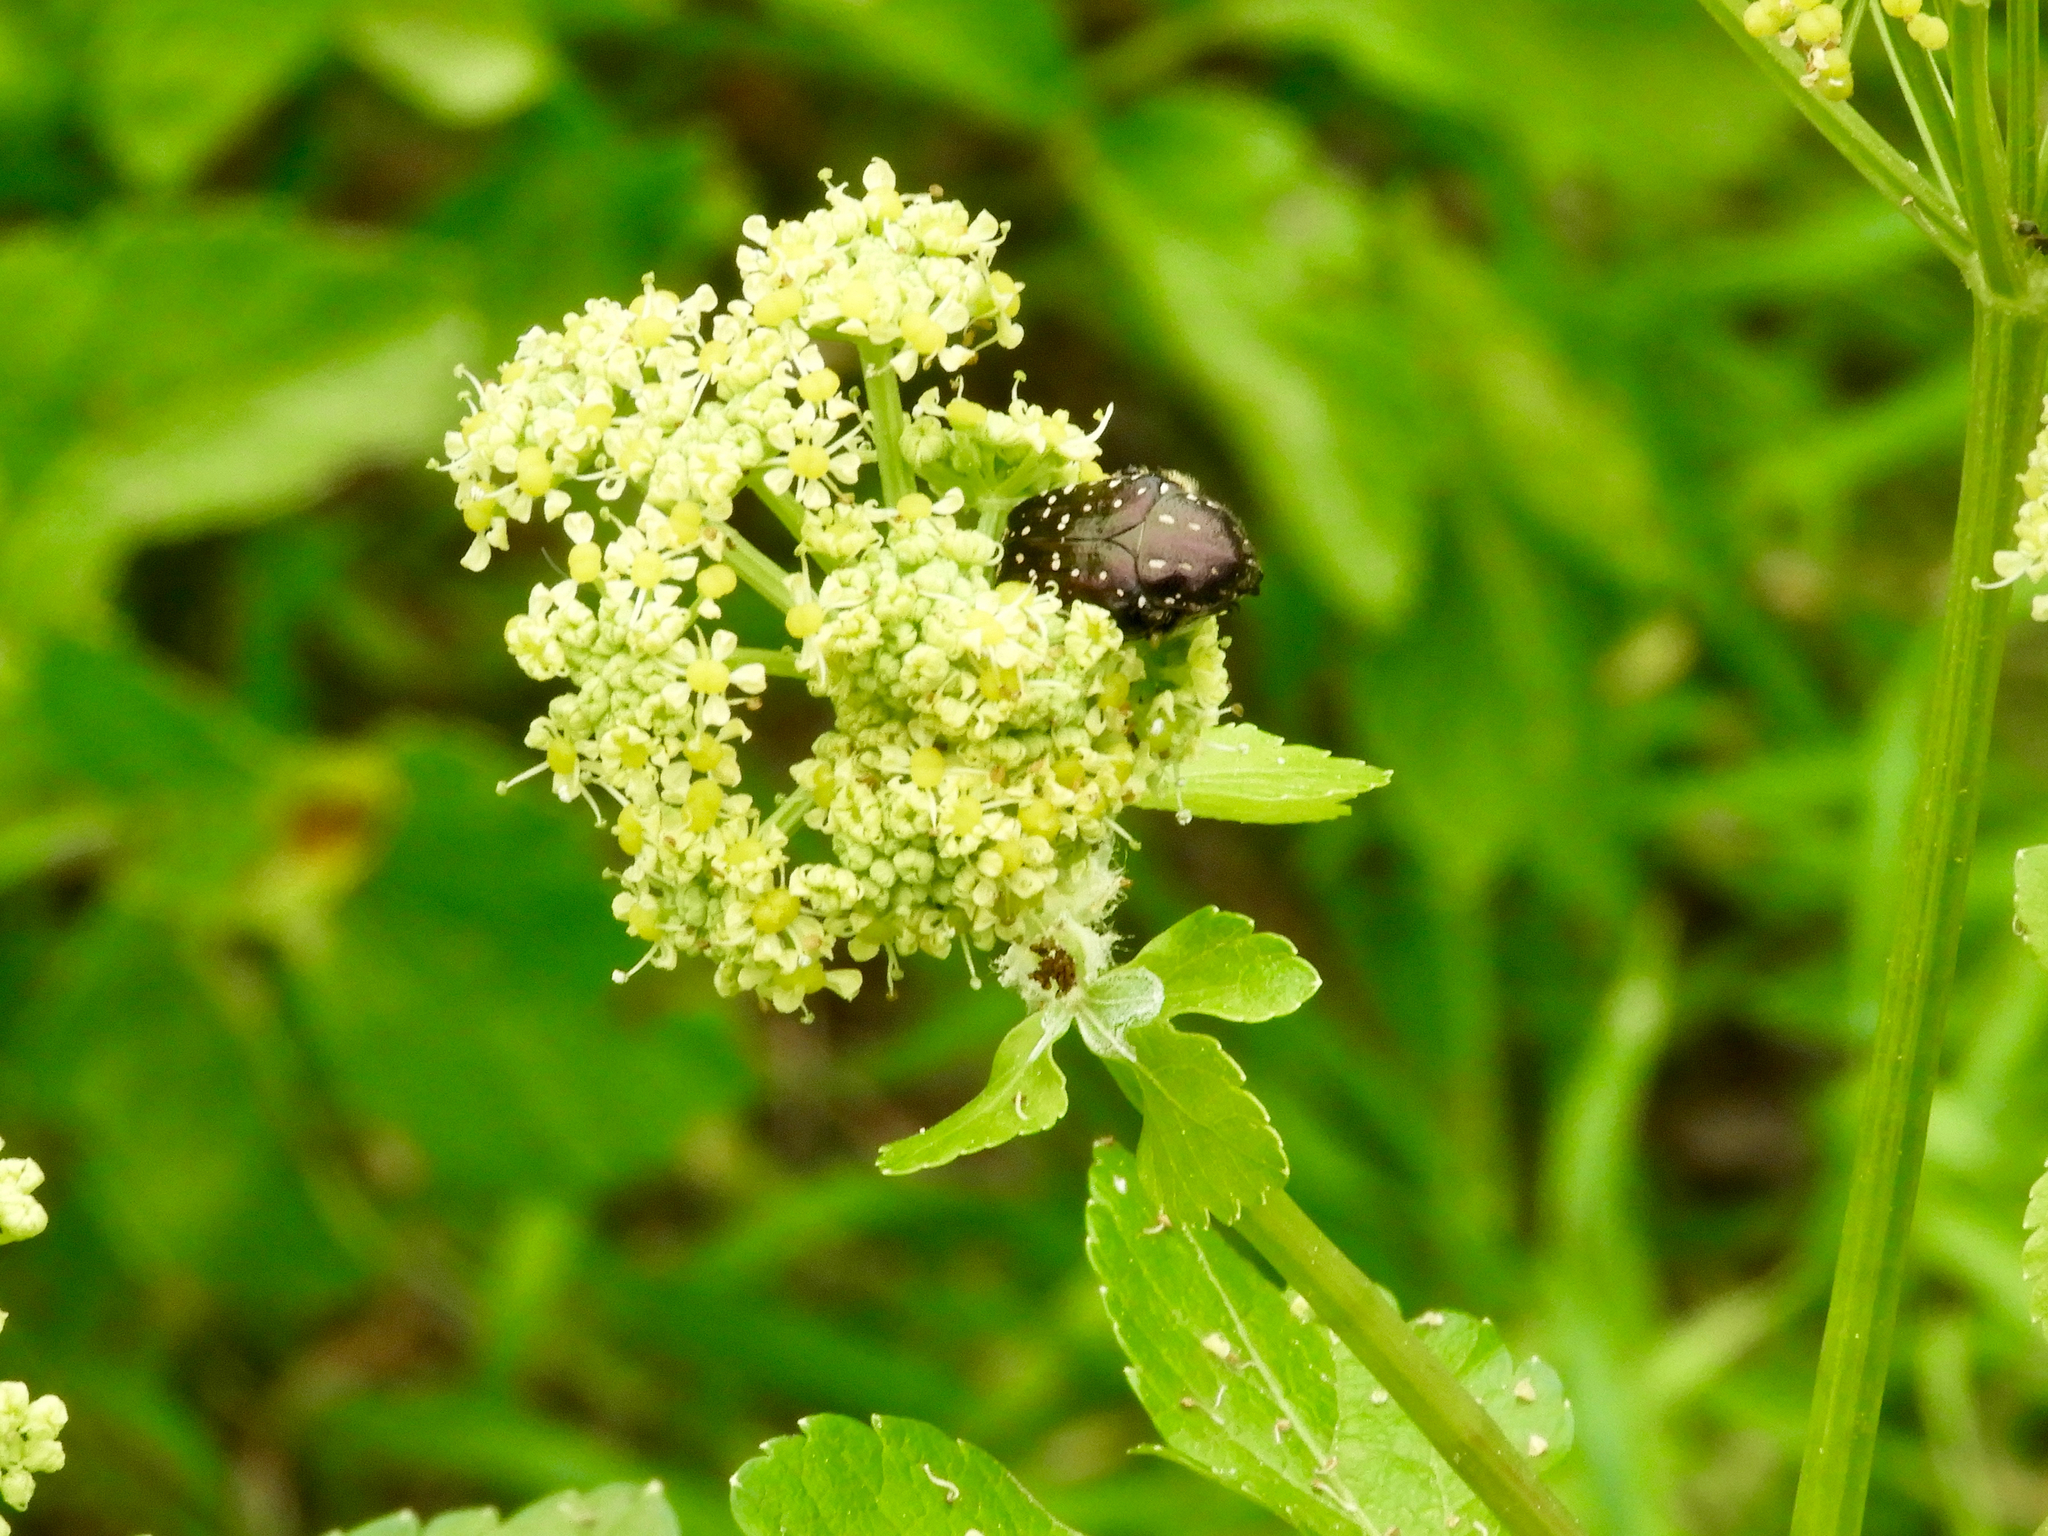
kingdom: Animalia
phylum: Arthropoda
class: Insecta
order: Coleoptera
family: Scarabaeidae
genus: Oxythyrea
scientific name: Oxythyrea funesta
